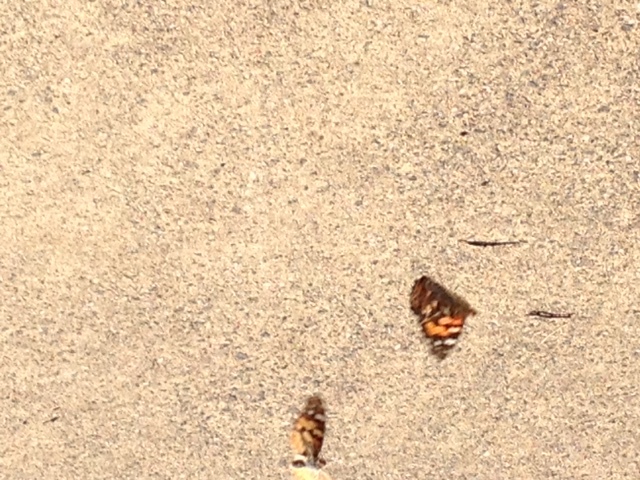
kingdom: Animalia
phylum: Arthropoda
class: Insecta
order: Lepidoptera
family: Nymphalidae
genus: Vanessa
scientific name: Vanessa kershawi
